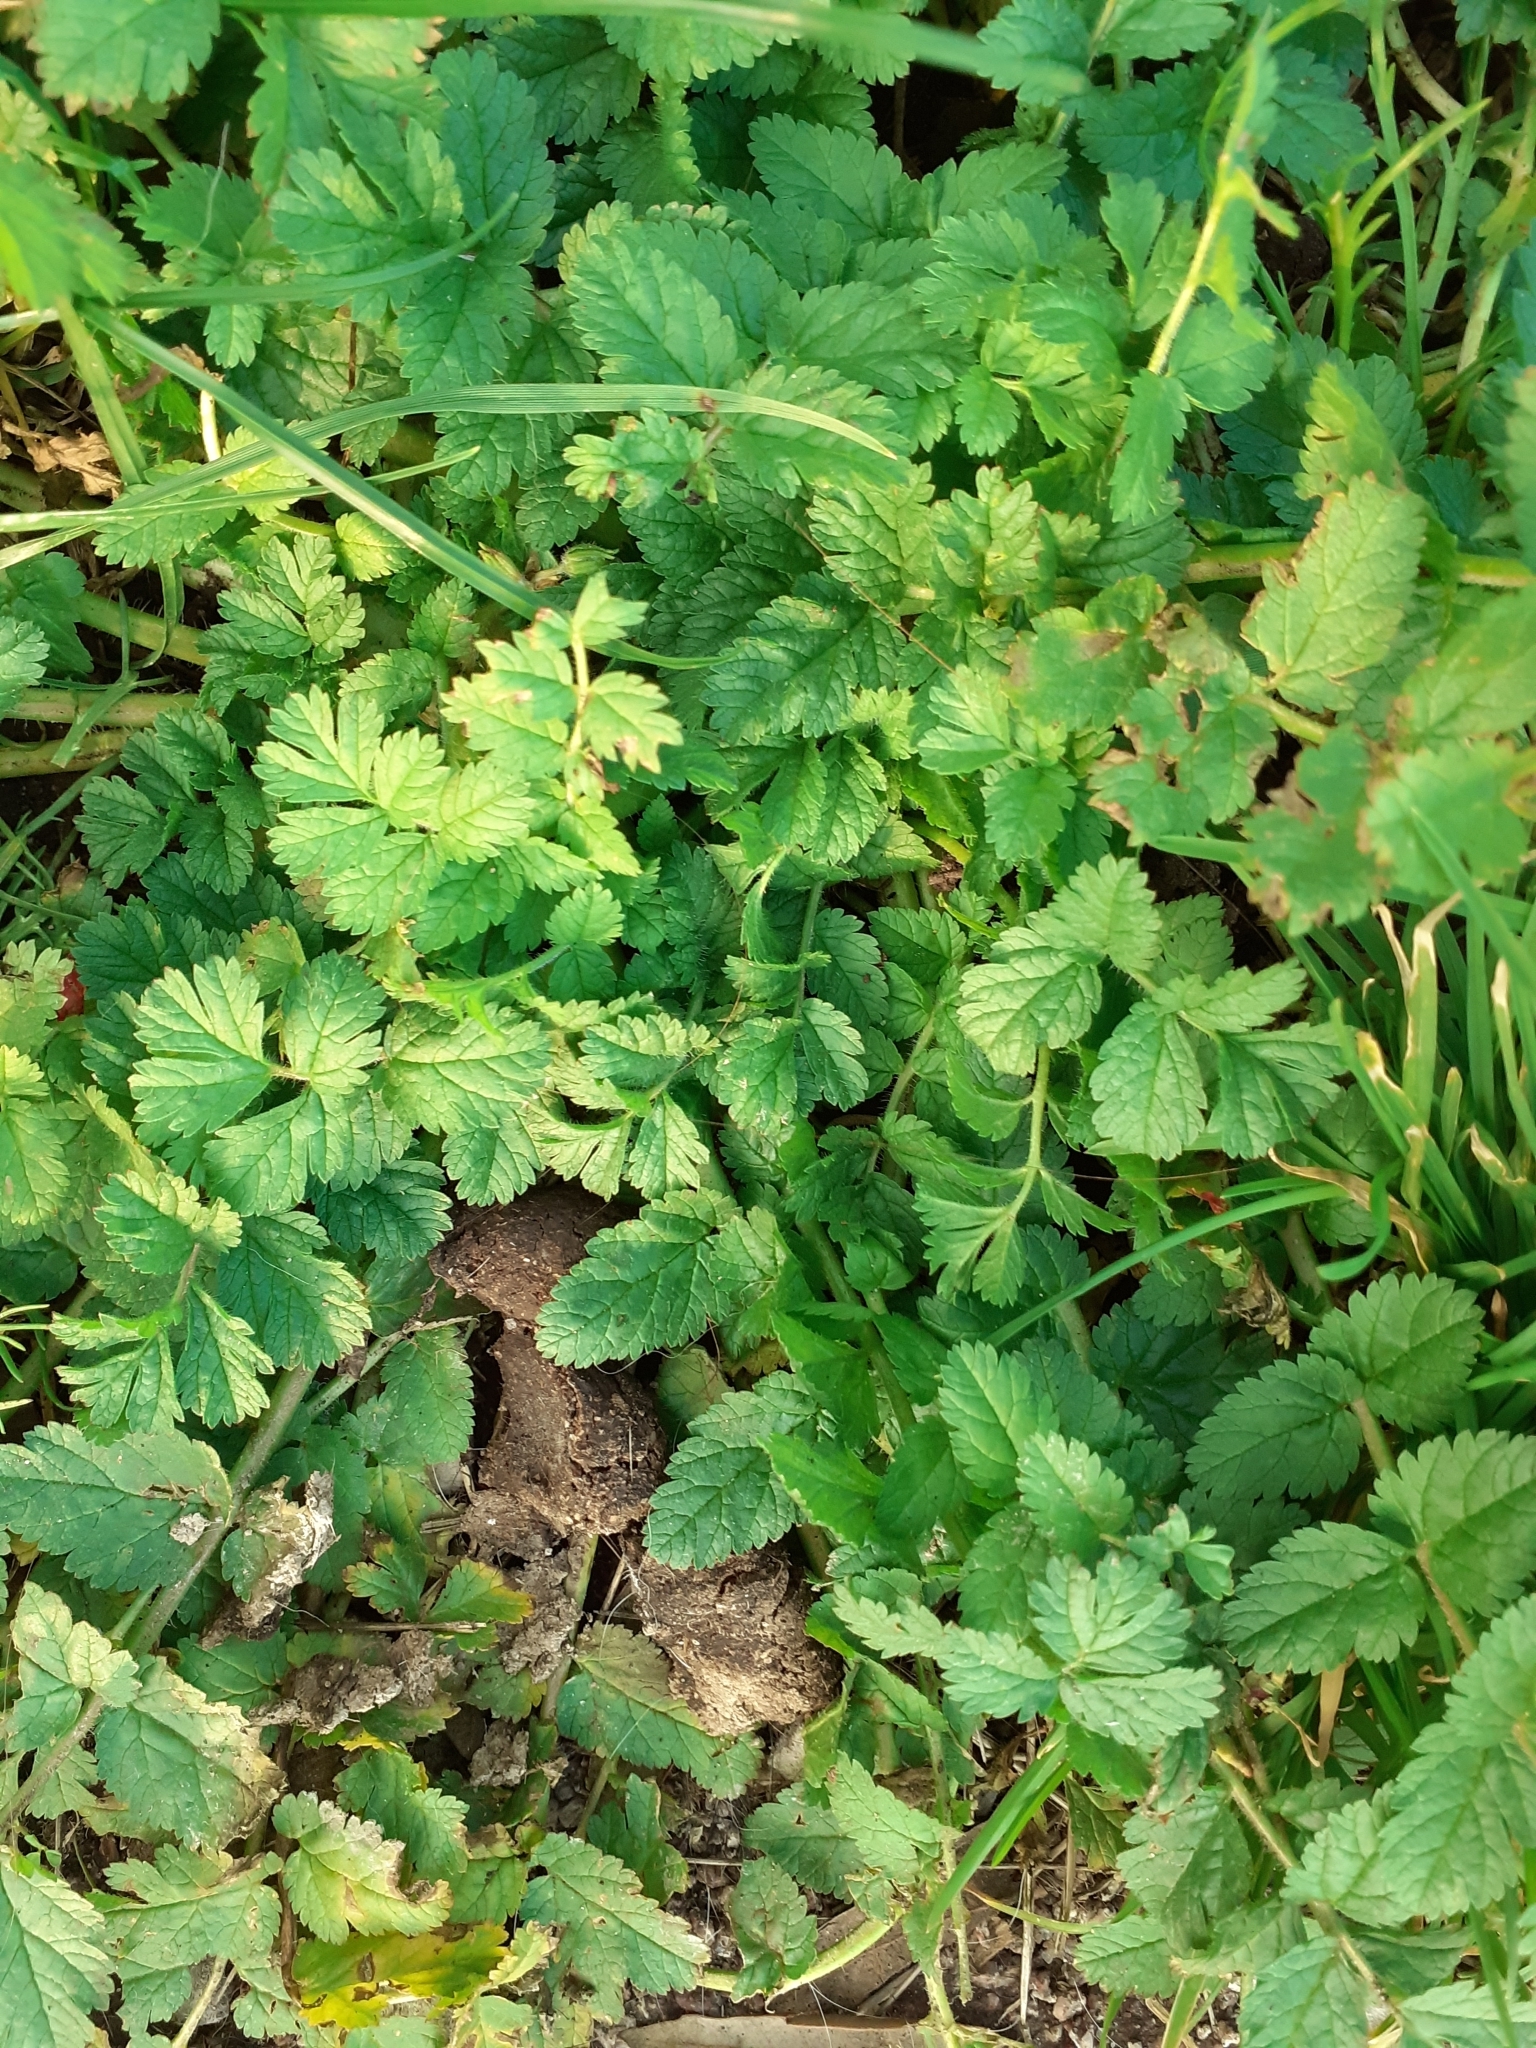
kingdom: Plantae
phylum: Tracheophyta
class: Magnoliopsida
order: Geraniales
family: Geraniaceae
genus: Erodium
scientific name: Erodium moschatum
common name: Musk stork's-bill
